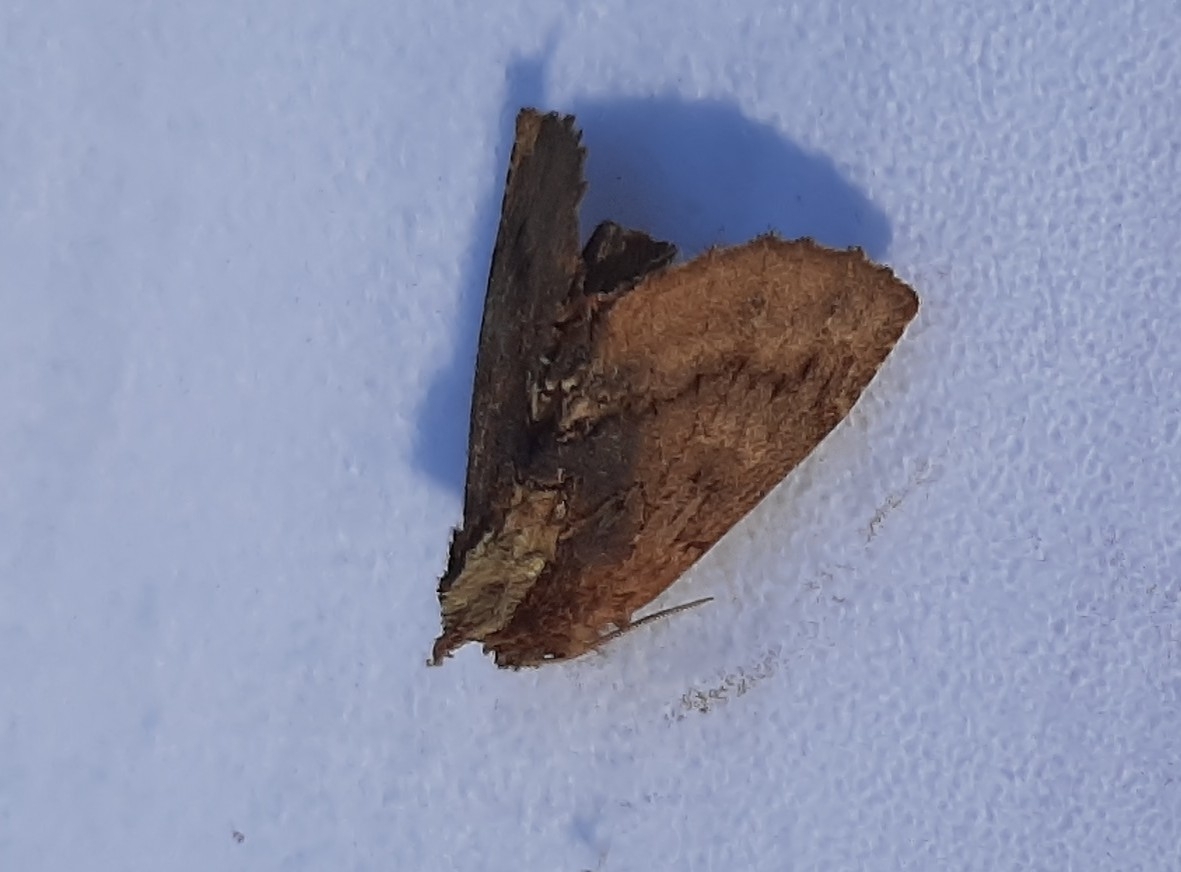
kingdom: Animalia
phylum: Arthropoda
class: Insecta
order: Lepidoptera
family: Notodontidae
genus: Ptilodon
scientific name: Ptilodon capucina
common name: Coxcomb prominent
